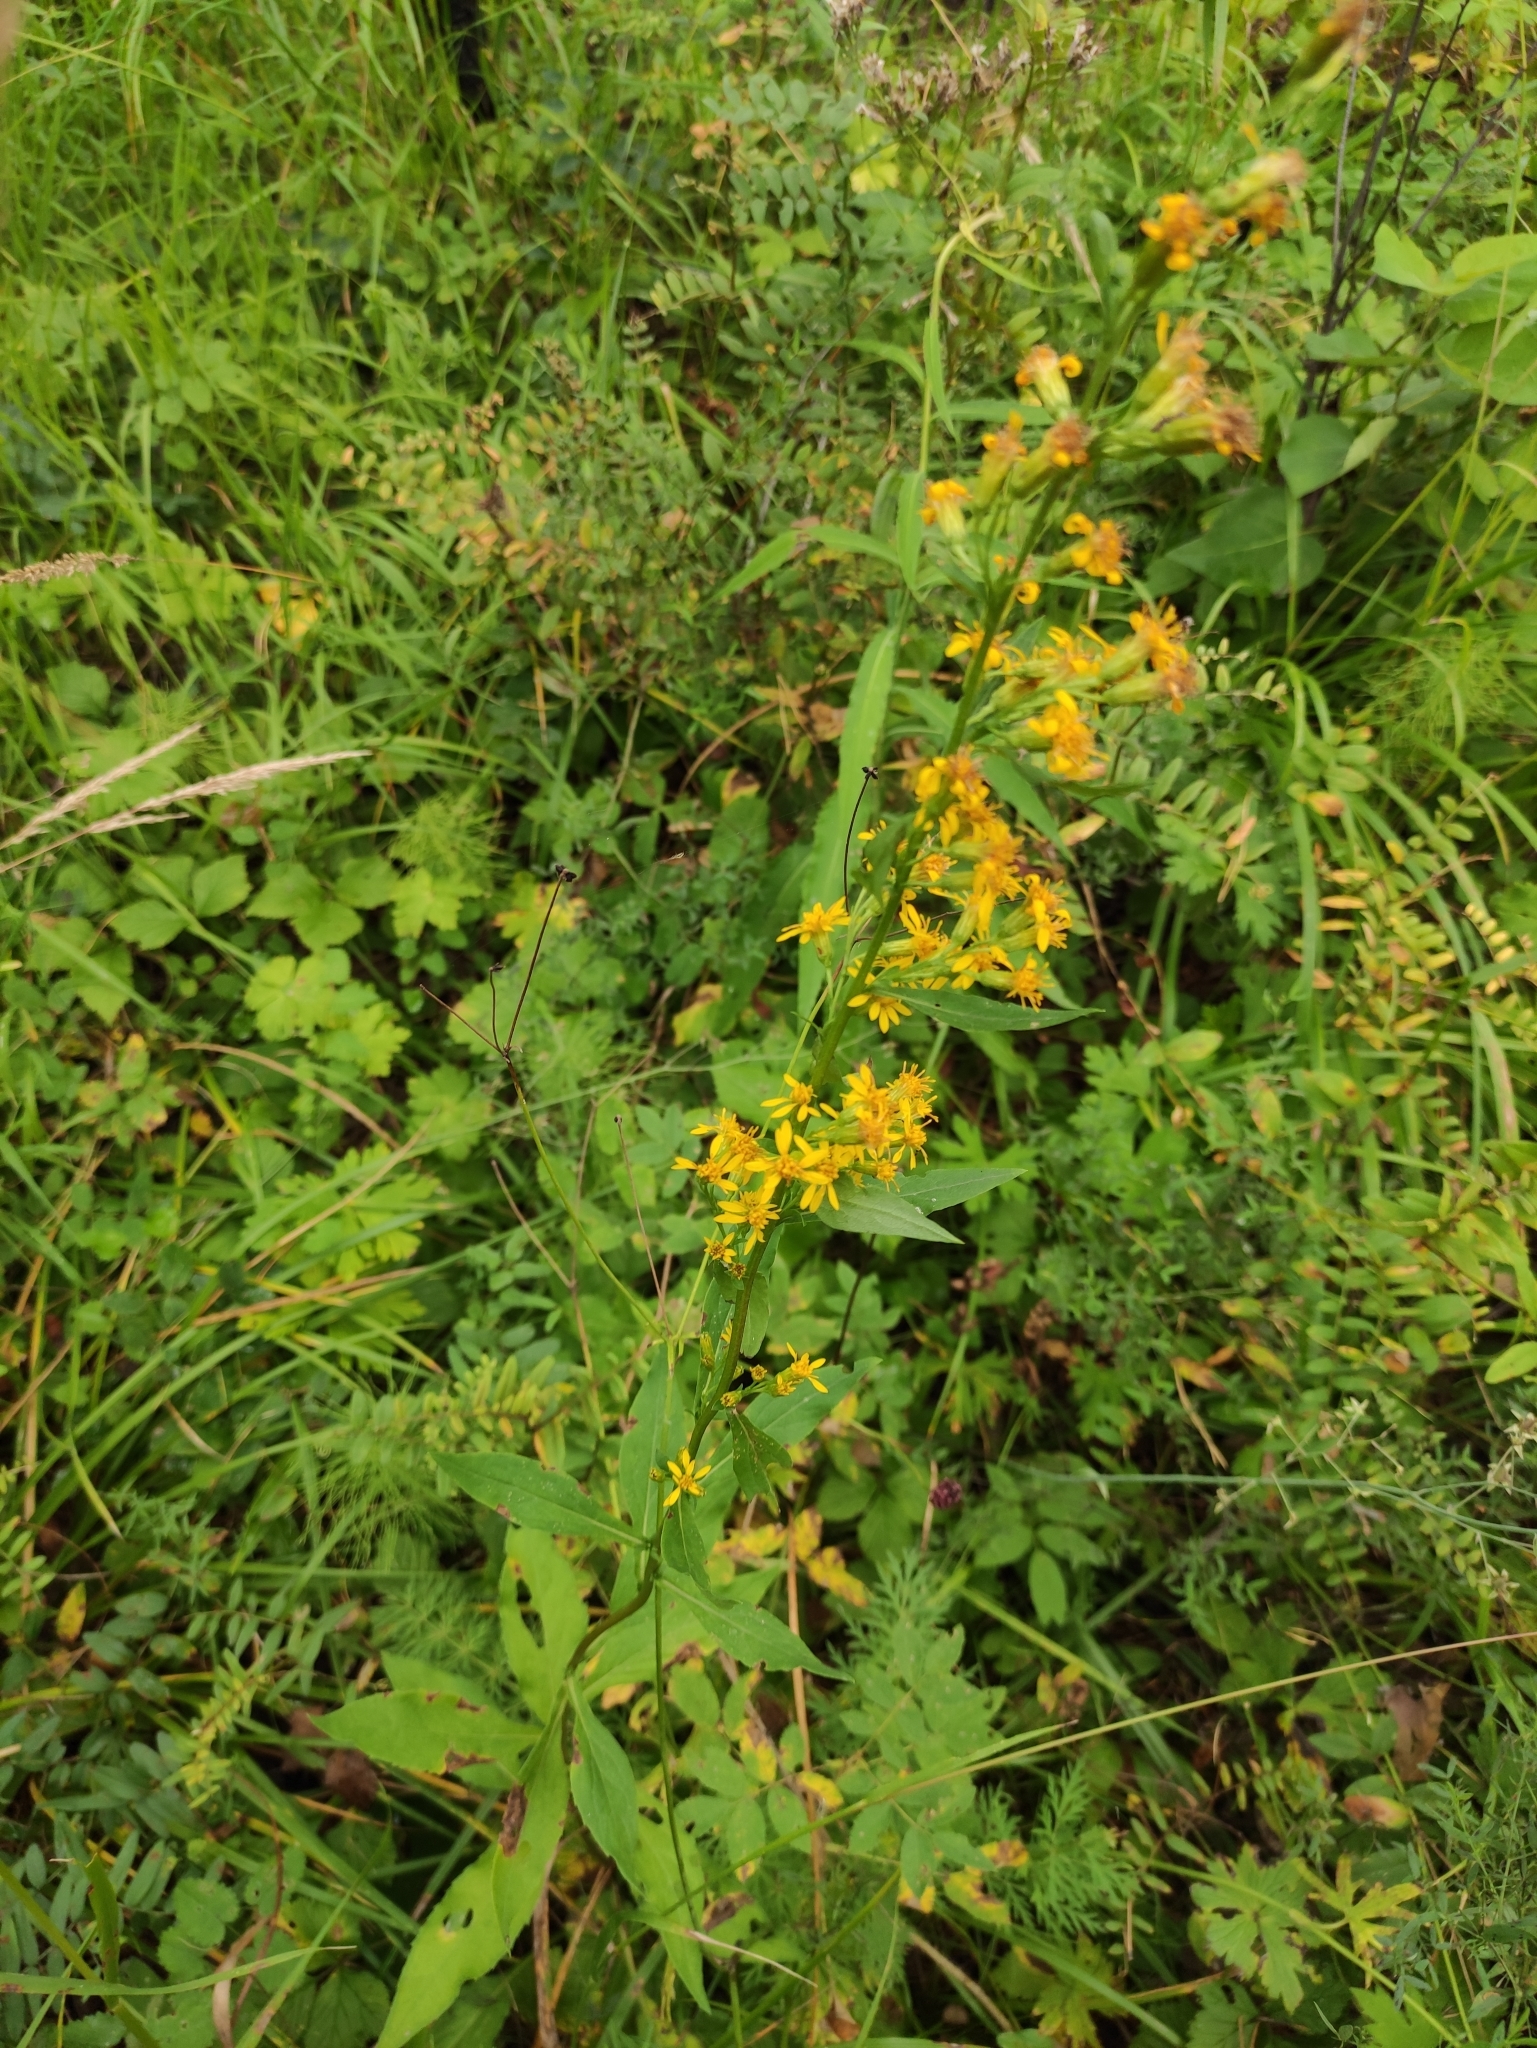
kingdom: Plantae
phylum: Tracheophyta
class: Magnoliopsida
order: Asterales
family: Asteraceae
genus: Solidago
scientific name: Solidago dahurica
